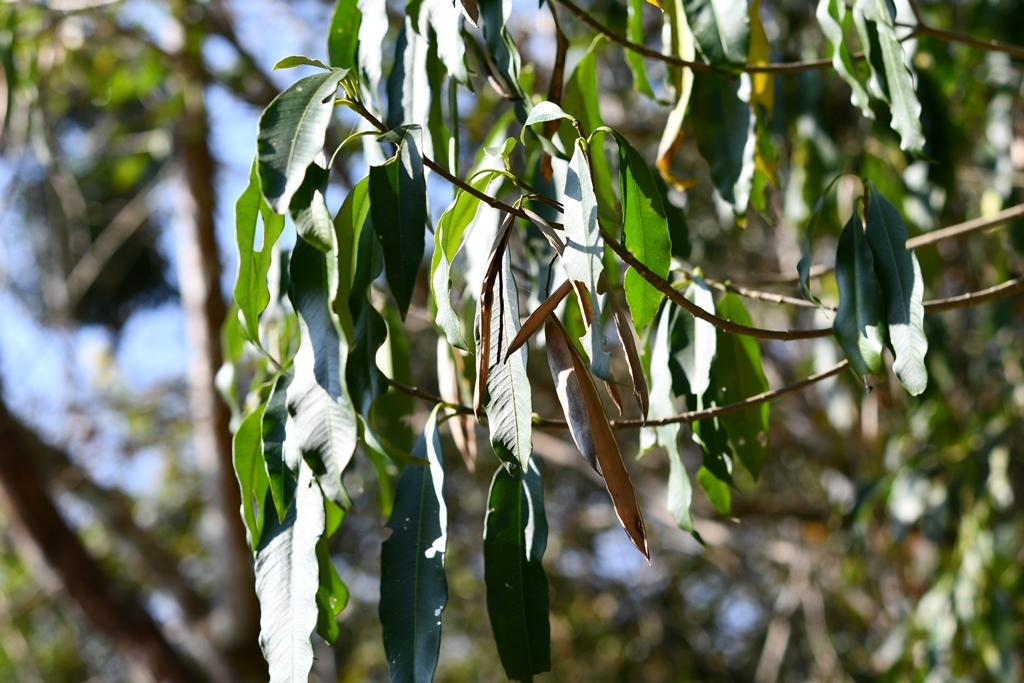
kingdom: Plantae
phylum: Tracheophyta
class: Magnoliopsida
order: Gentianales
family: Apocynaceae
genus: Tonduzia
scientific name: Tonduzia longifolia
